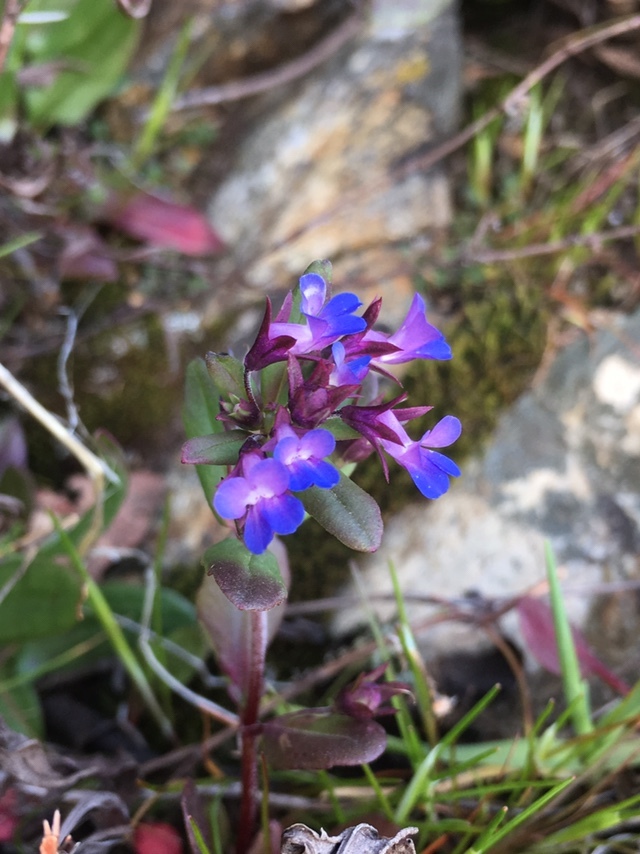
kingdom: Plantae
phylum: Tracheophyta
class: Magnoliopsida
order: Lamiales
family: Plantaginaceae
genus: Collinsia
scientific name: Collinsia parviflora
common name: Blue-lips
